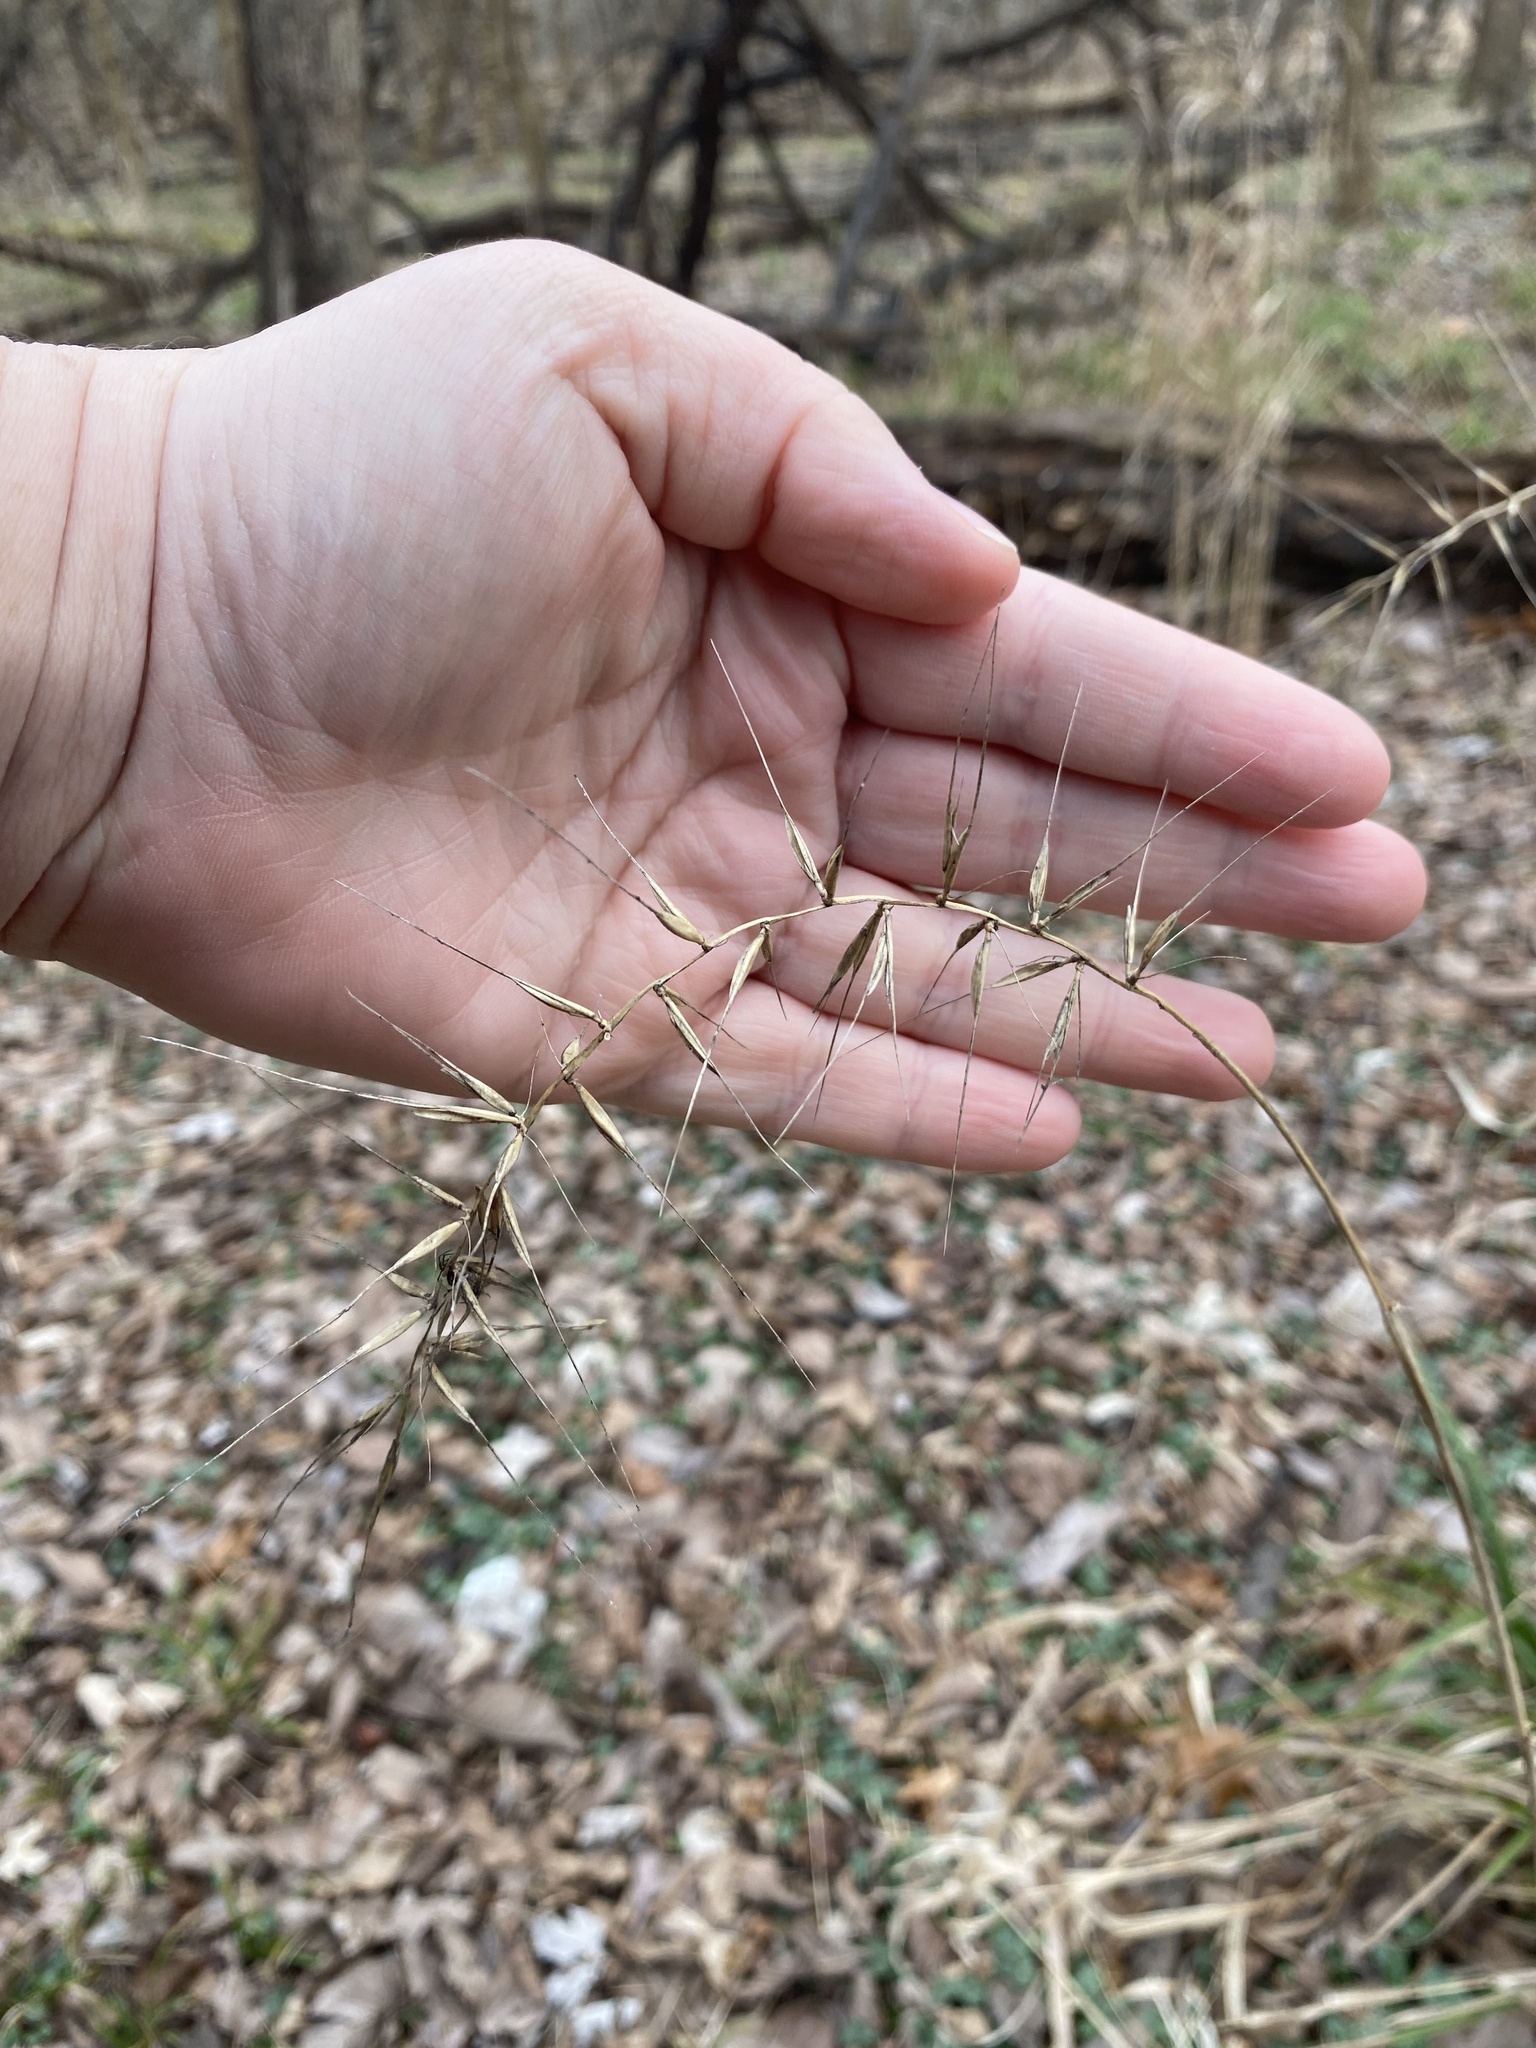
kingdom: Plantae
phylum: Tracheophyta
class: Liliopsida
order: Poales
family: Poaceae
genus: Elymus
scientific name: Elymus hystrix
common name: Bottlebrush grass
